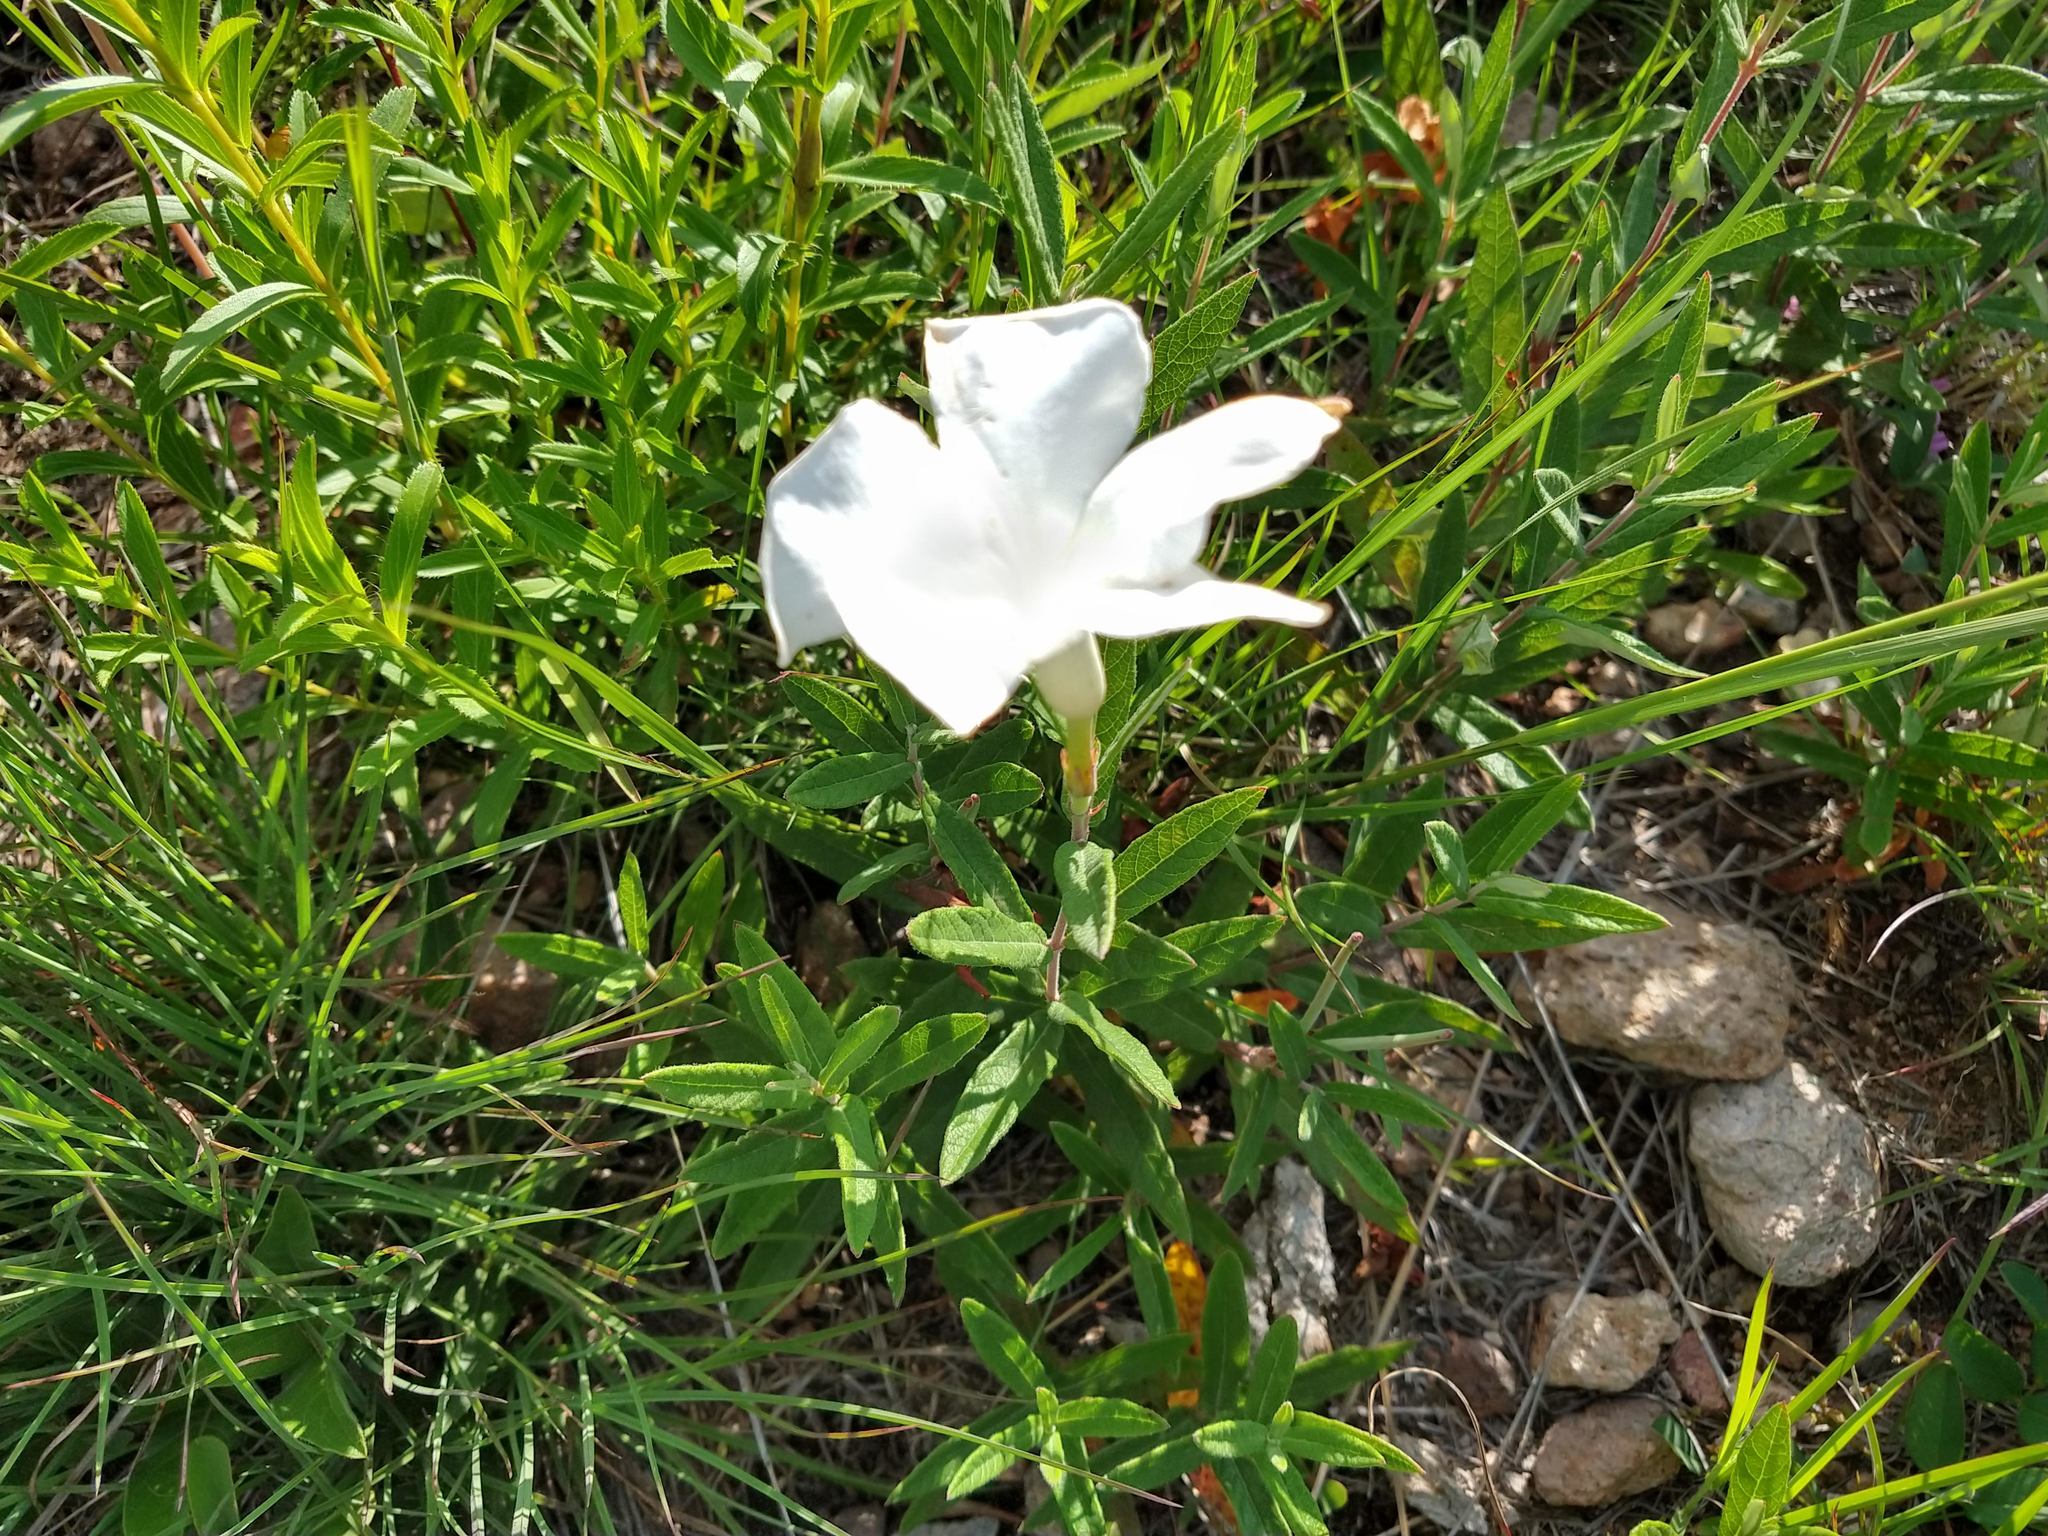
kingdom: Plantae
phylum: Tracheophyta
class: Magnoliopsida
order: Gentianales
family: Apocynaceae
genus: Mandevilla
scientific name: Mandevilla hypoleuca
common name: Davis mountain rocktrumpet
